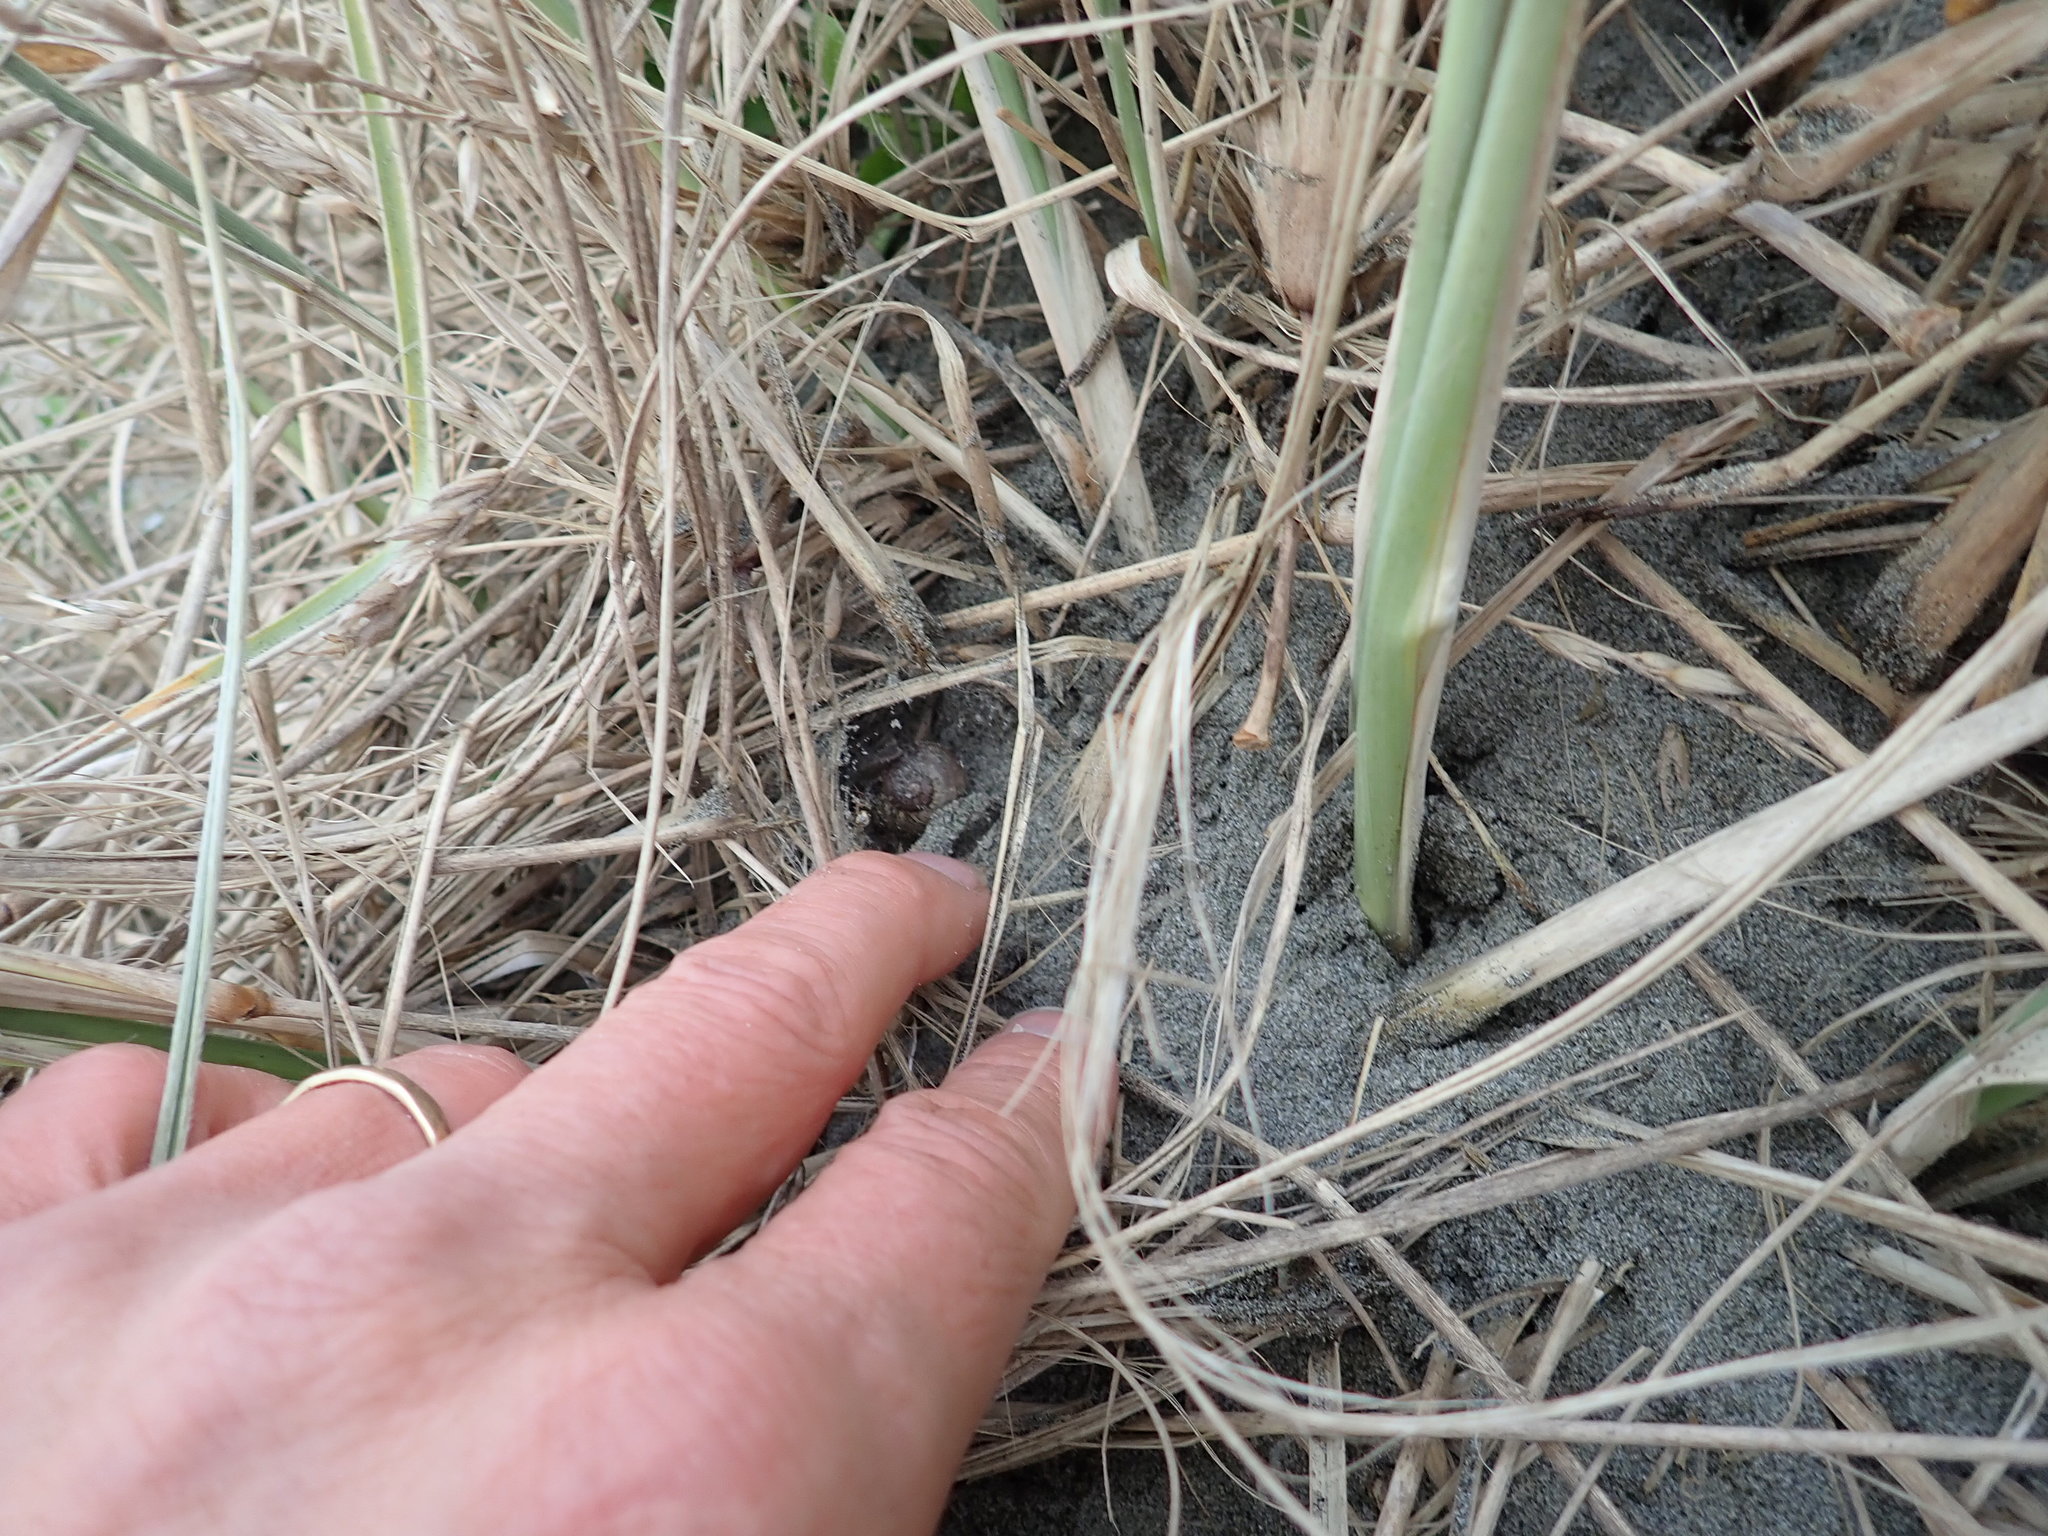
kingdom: Animalia
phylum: Arthropoda
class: Arachnida
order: Araneae
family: Theridiidae
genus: Latrodectus
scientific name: Latrodectus katipo
